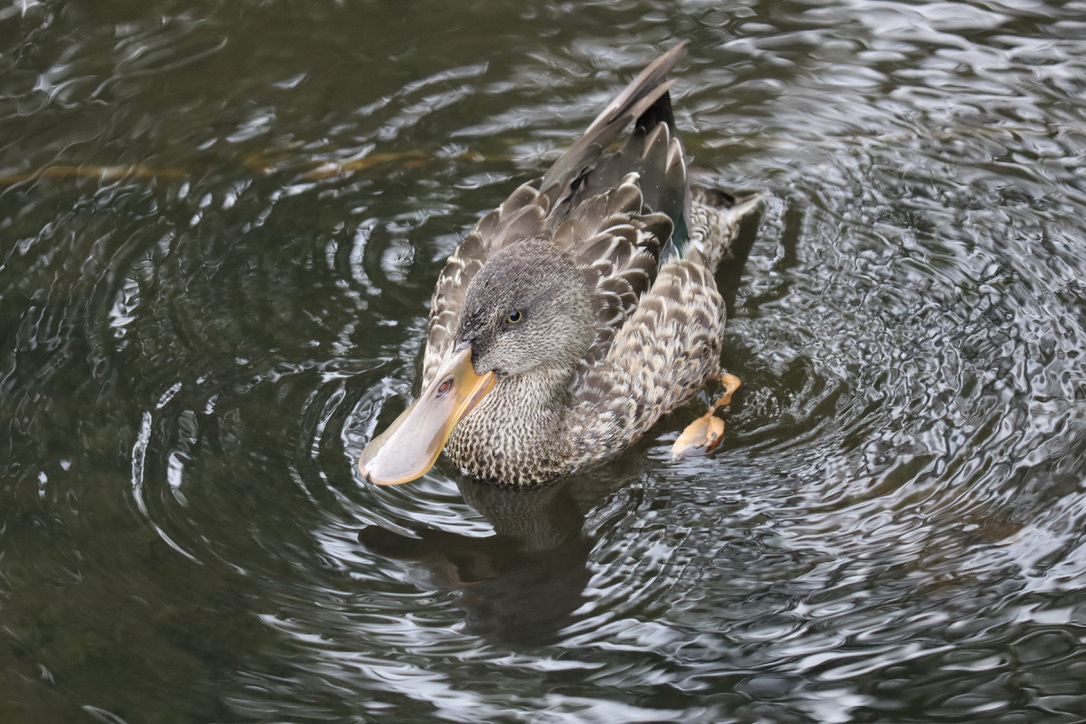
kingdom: Animalia
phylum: Chordata
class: Aves
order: Anseriformes
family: Anatidae
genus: Spatula
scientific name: Spatula clypeata
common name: Northern shoveler
